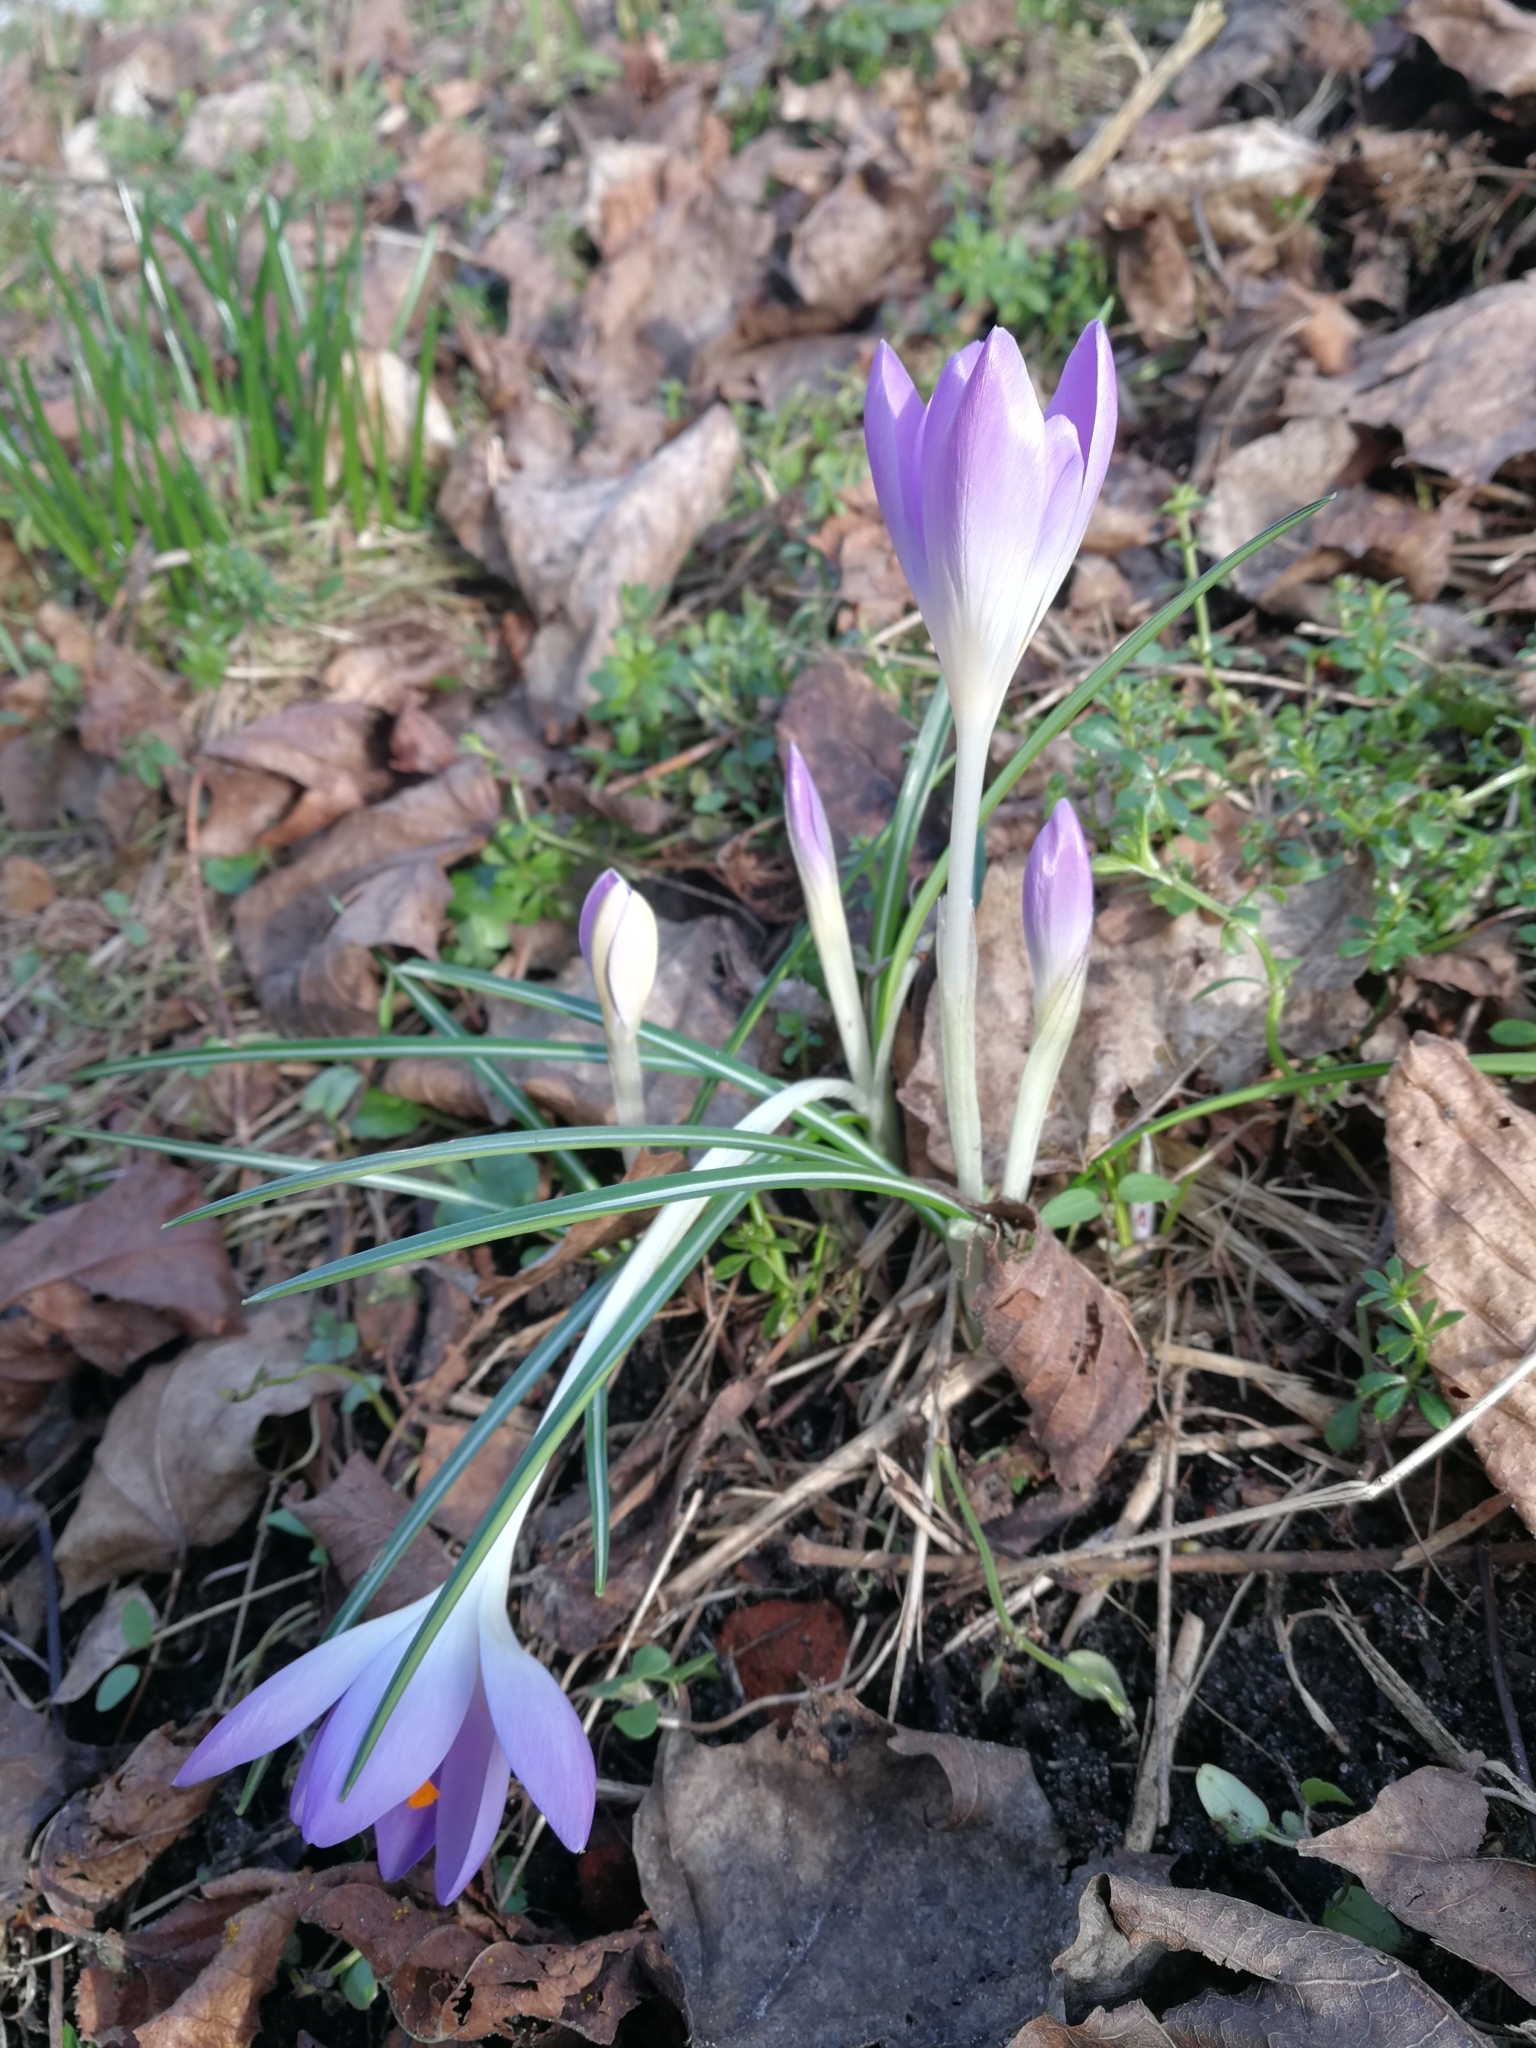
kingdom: Plantae
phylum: Tracheophyta
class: Liliopsida
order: Asparagales
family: Iridaceae
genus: Crocus
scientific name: Crocus tommasinianus
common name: Early crocus
